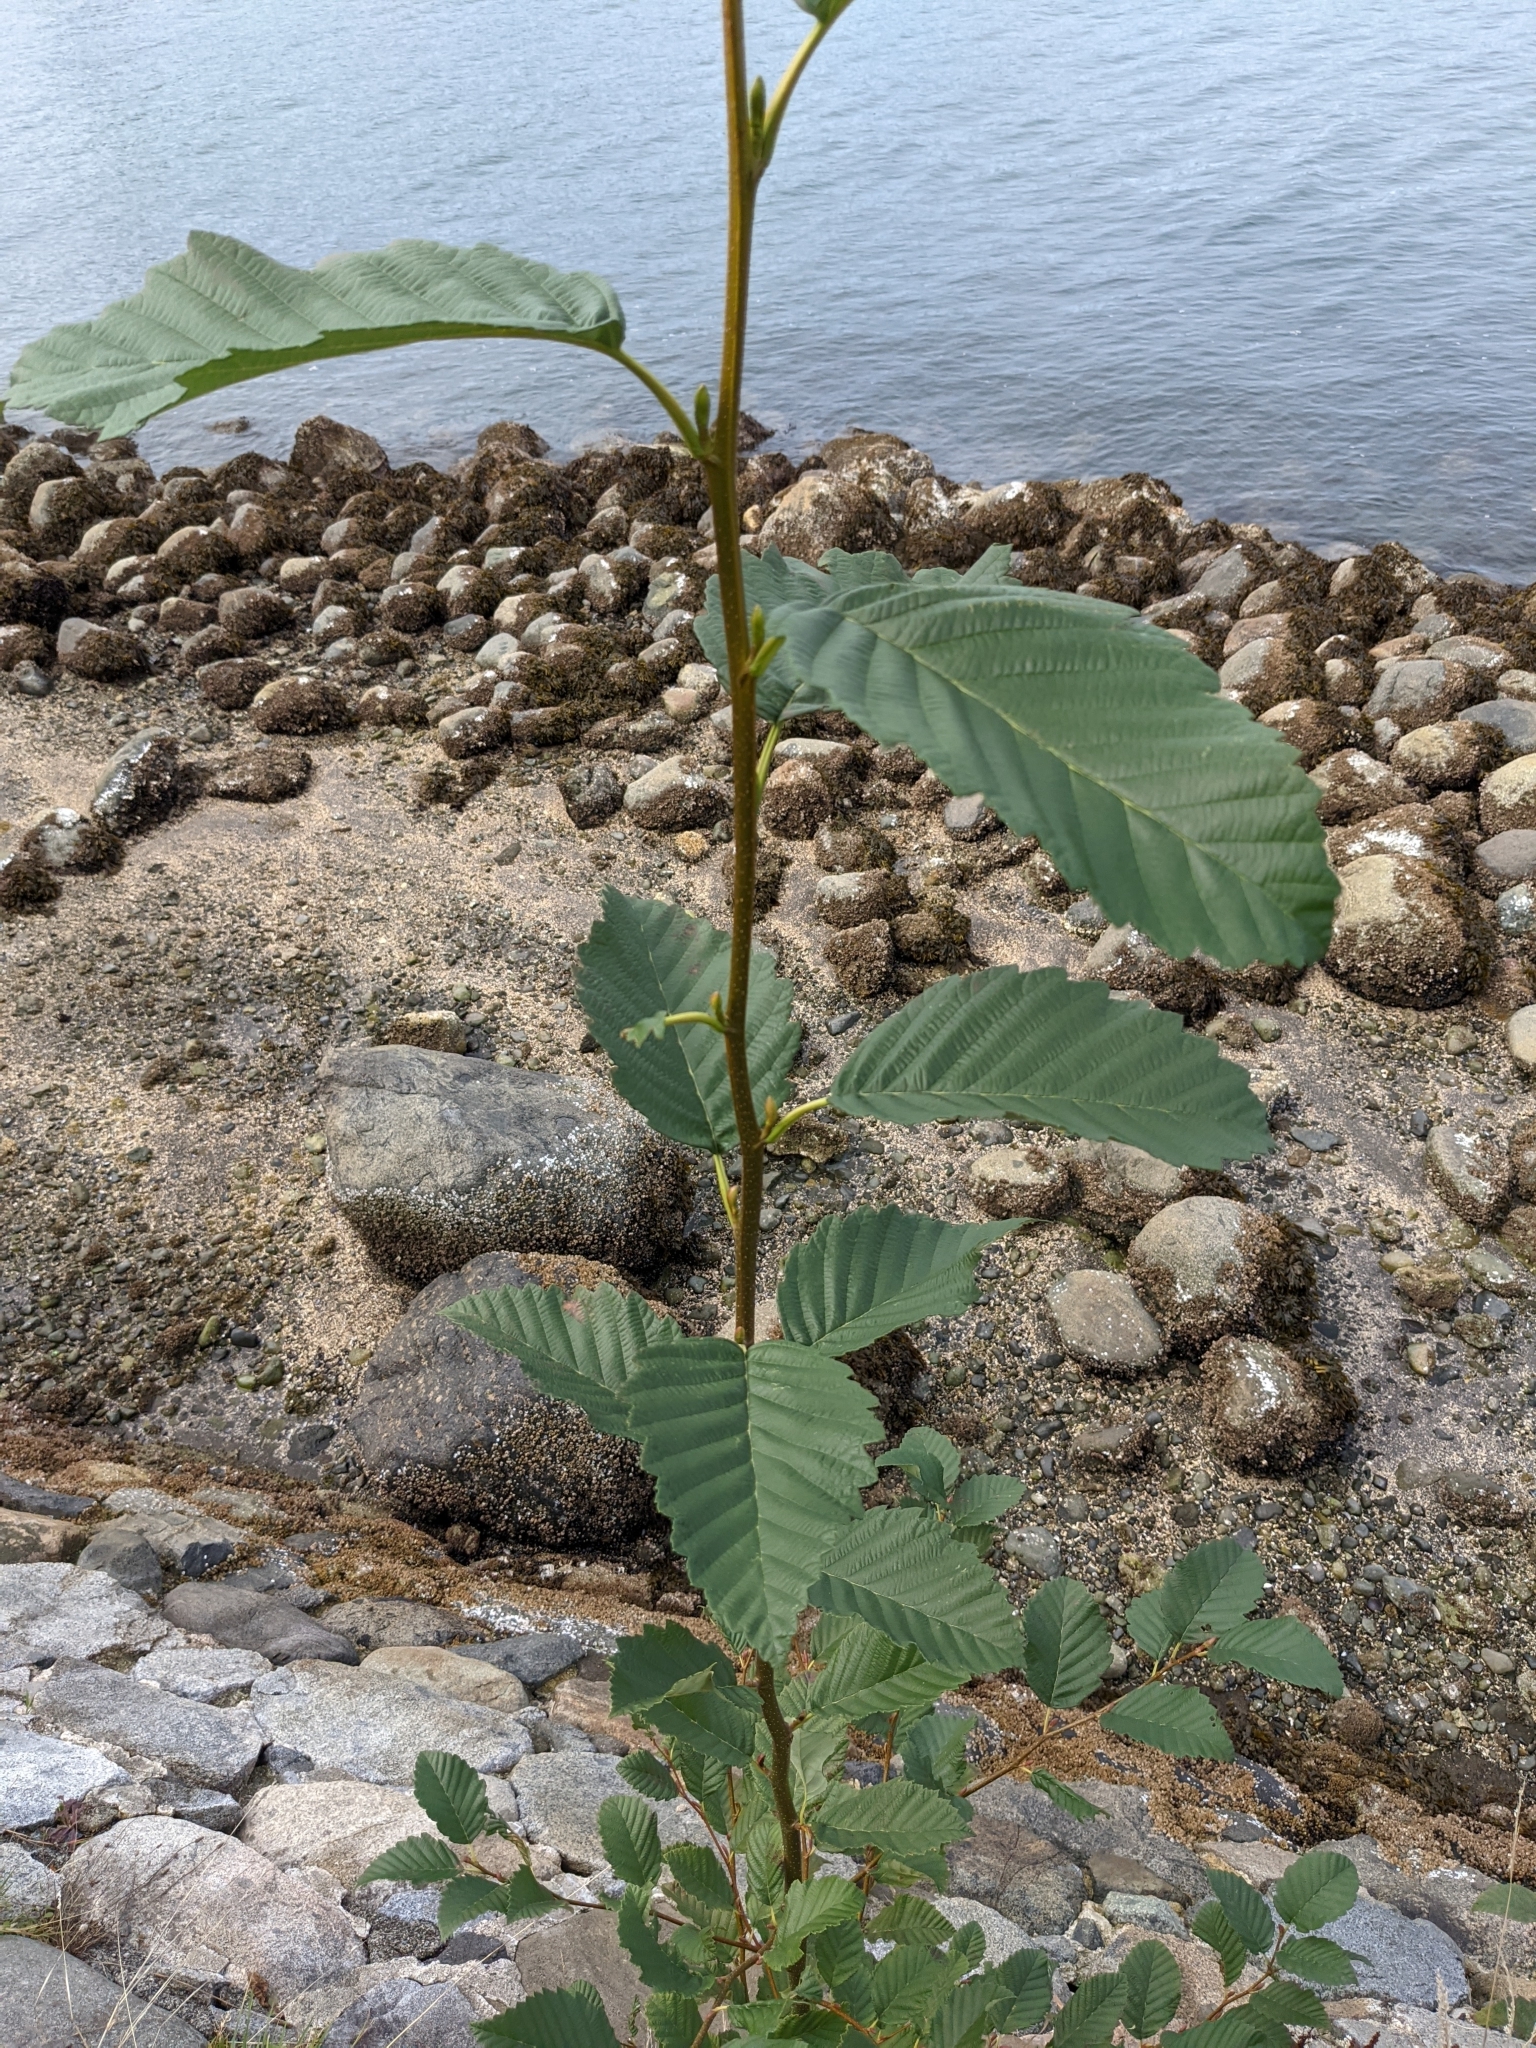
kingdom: Plantae
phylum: Tracheophyta
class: Magnoliopsida
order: Fagales
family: Betulaceae
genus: Alnus
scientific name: Alnus rubra
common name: Red alder
